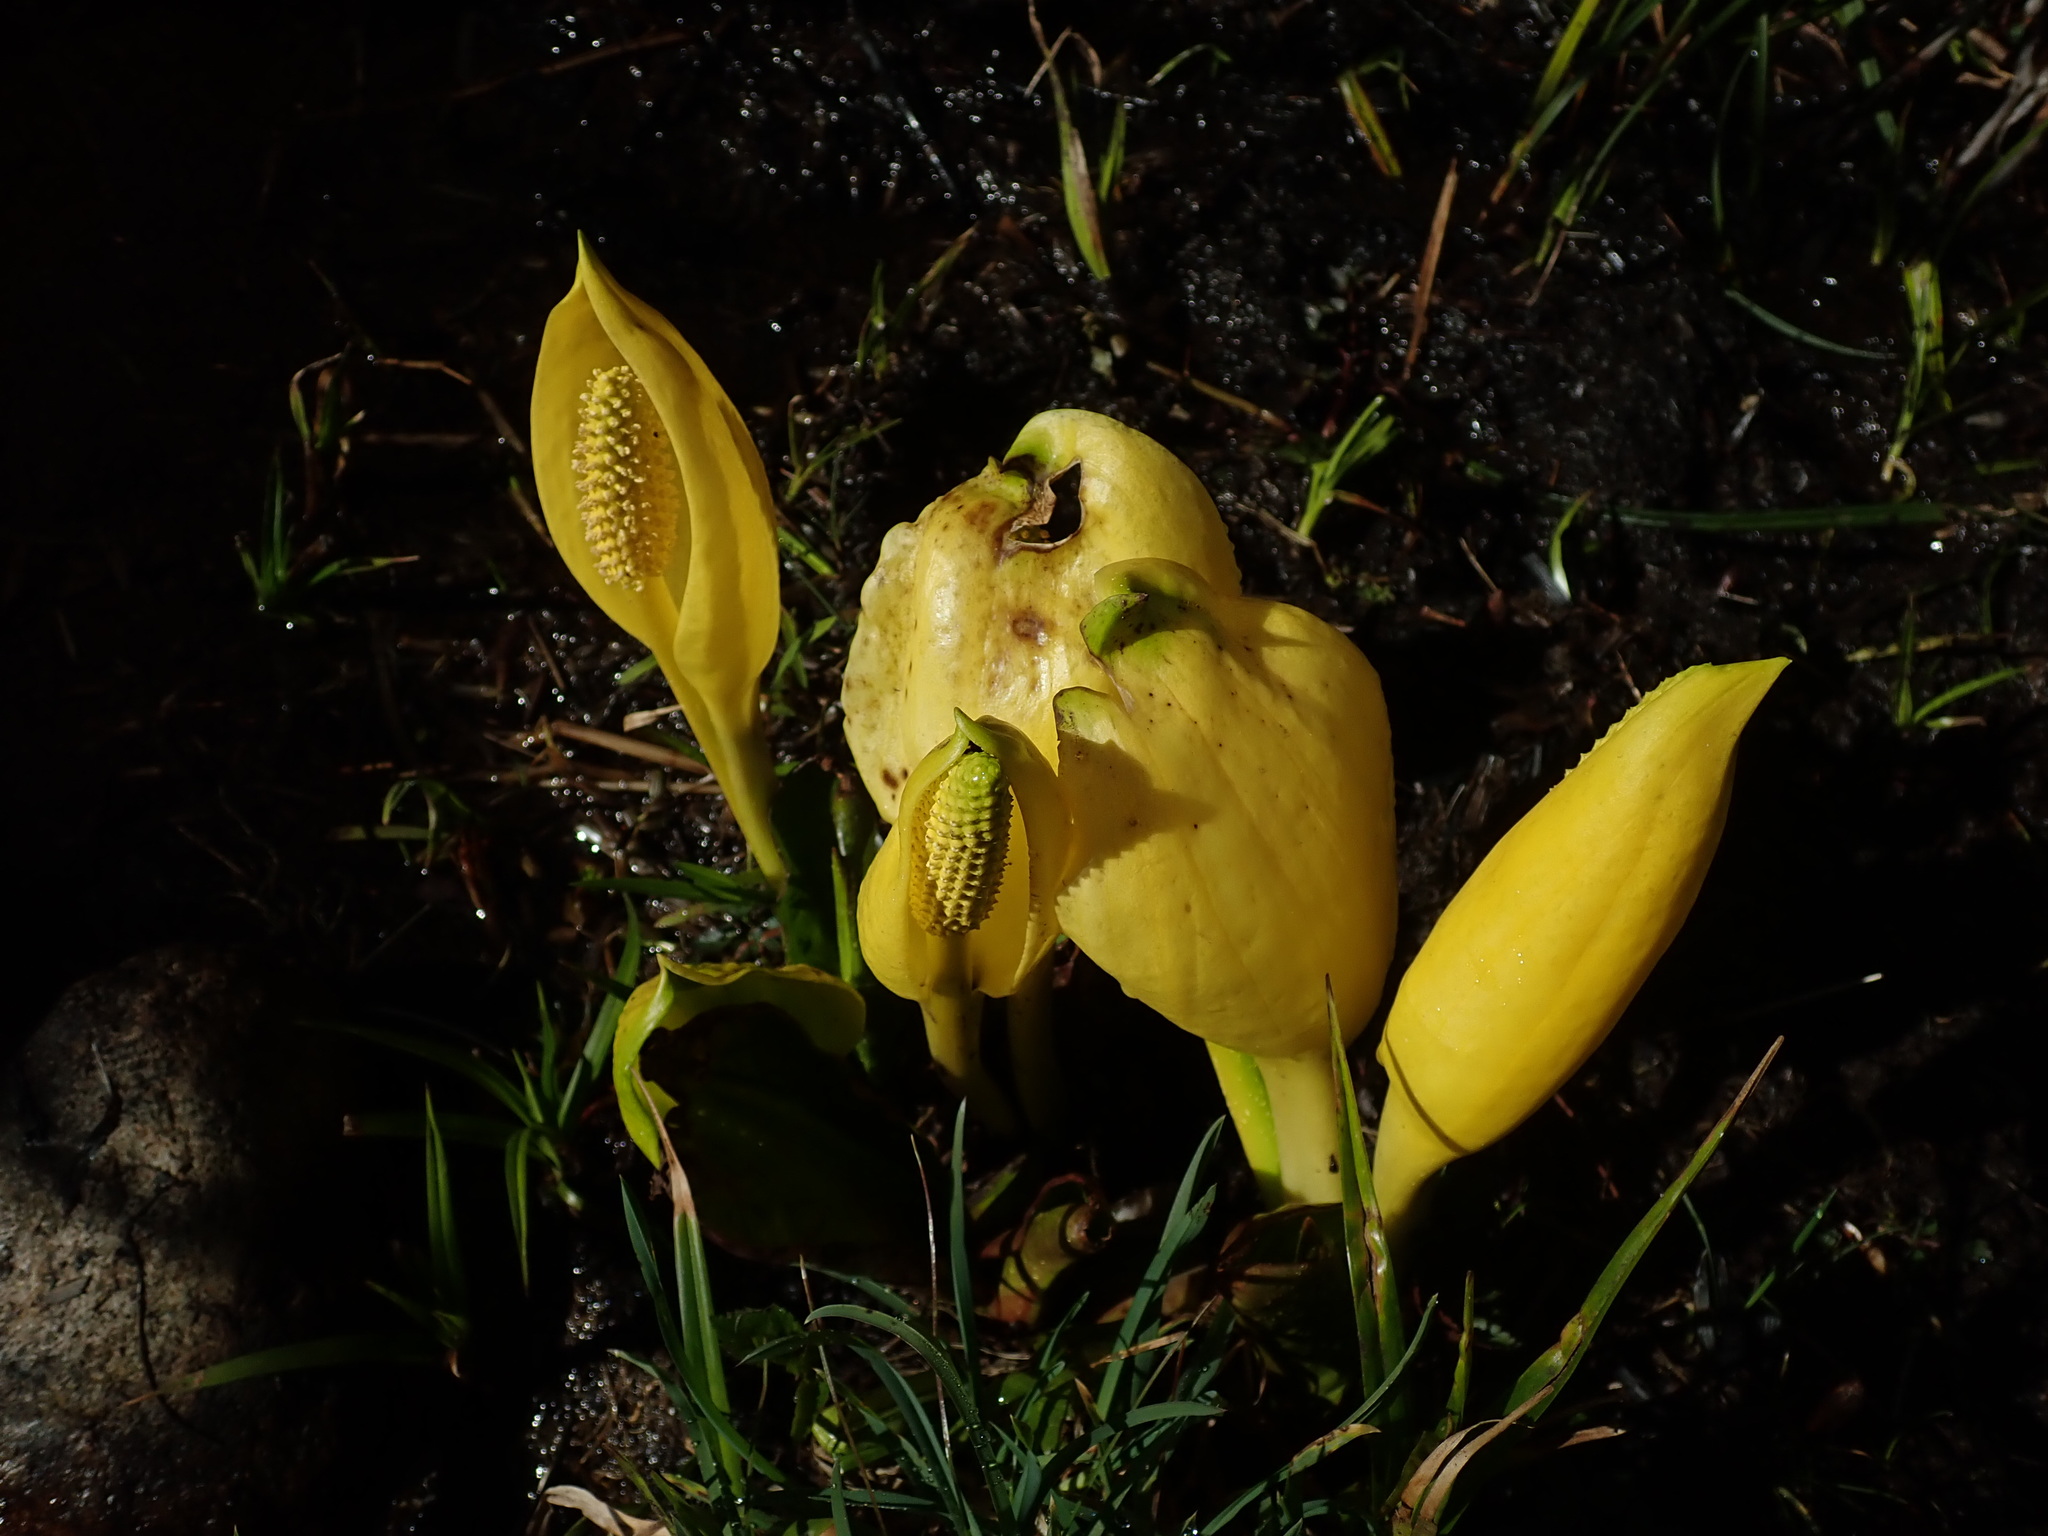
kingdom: Plantae
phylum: Tracheophyta
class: Liliopsida
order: Alismatales
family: Araceae
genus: Lysichiton
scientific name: Lysichiton americanus
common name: American skunk cabbage
